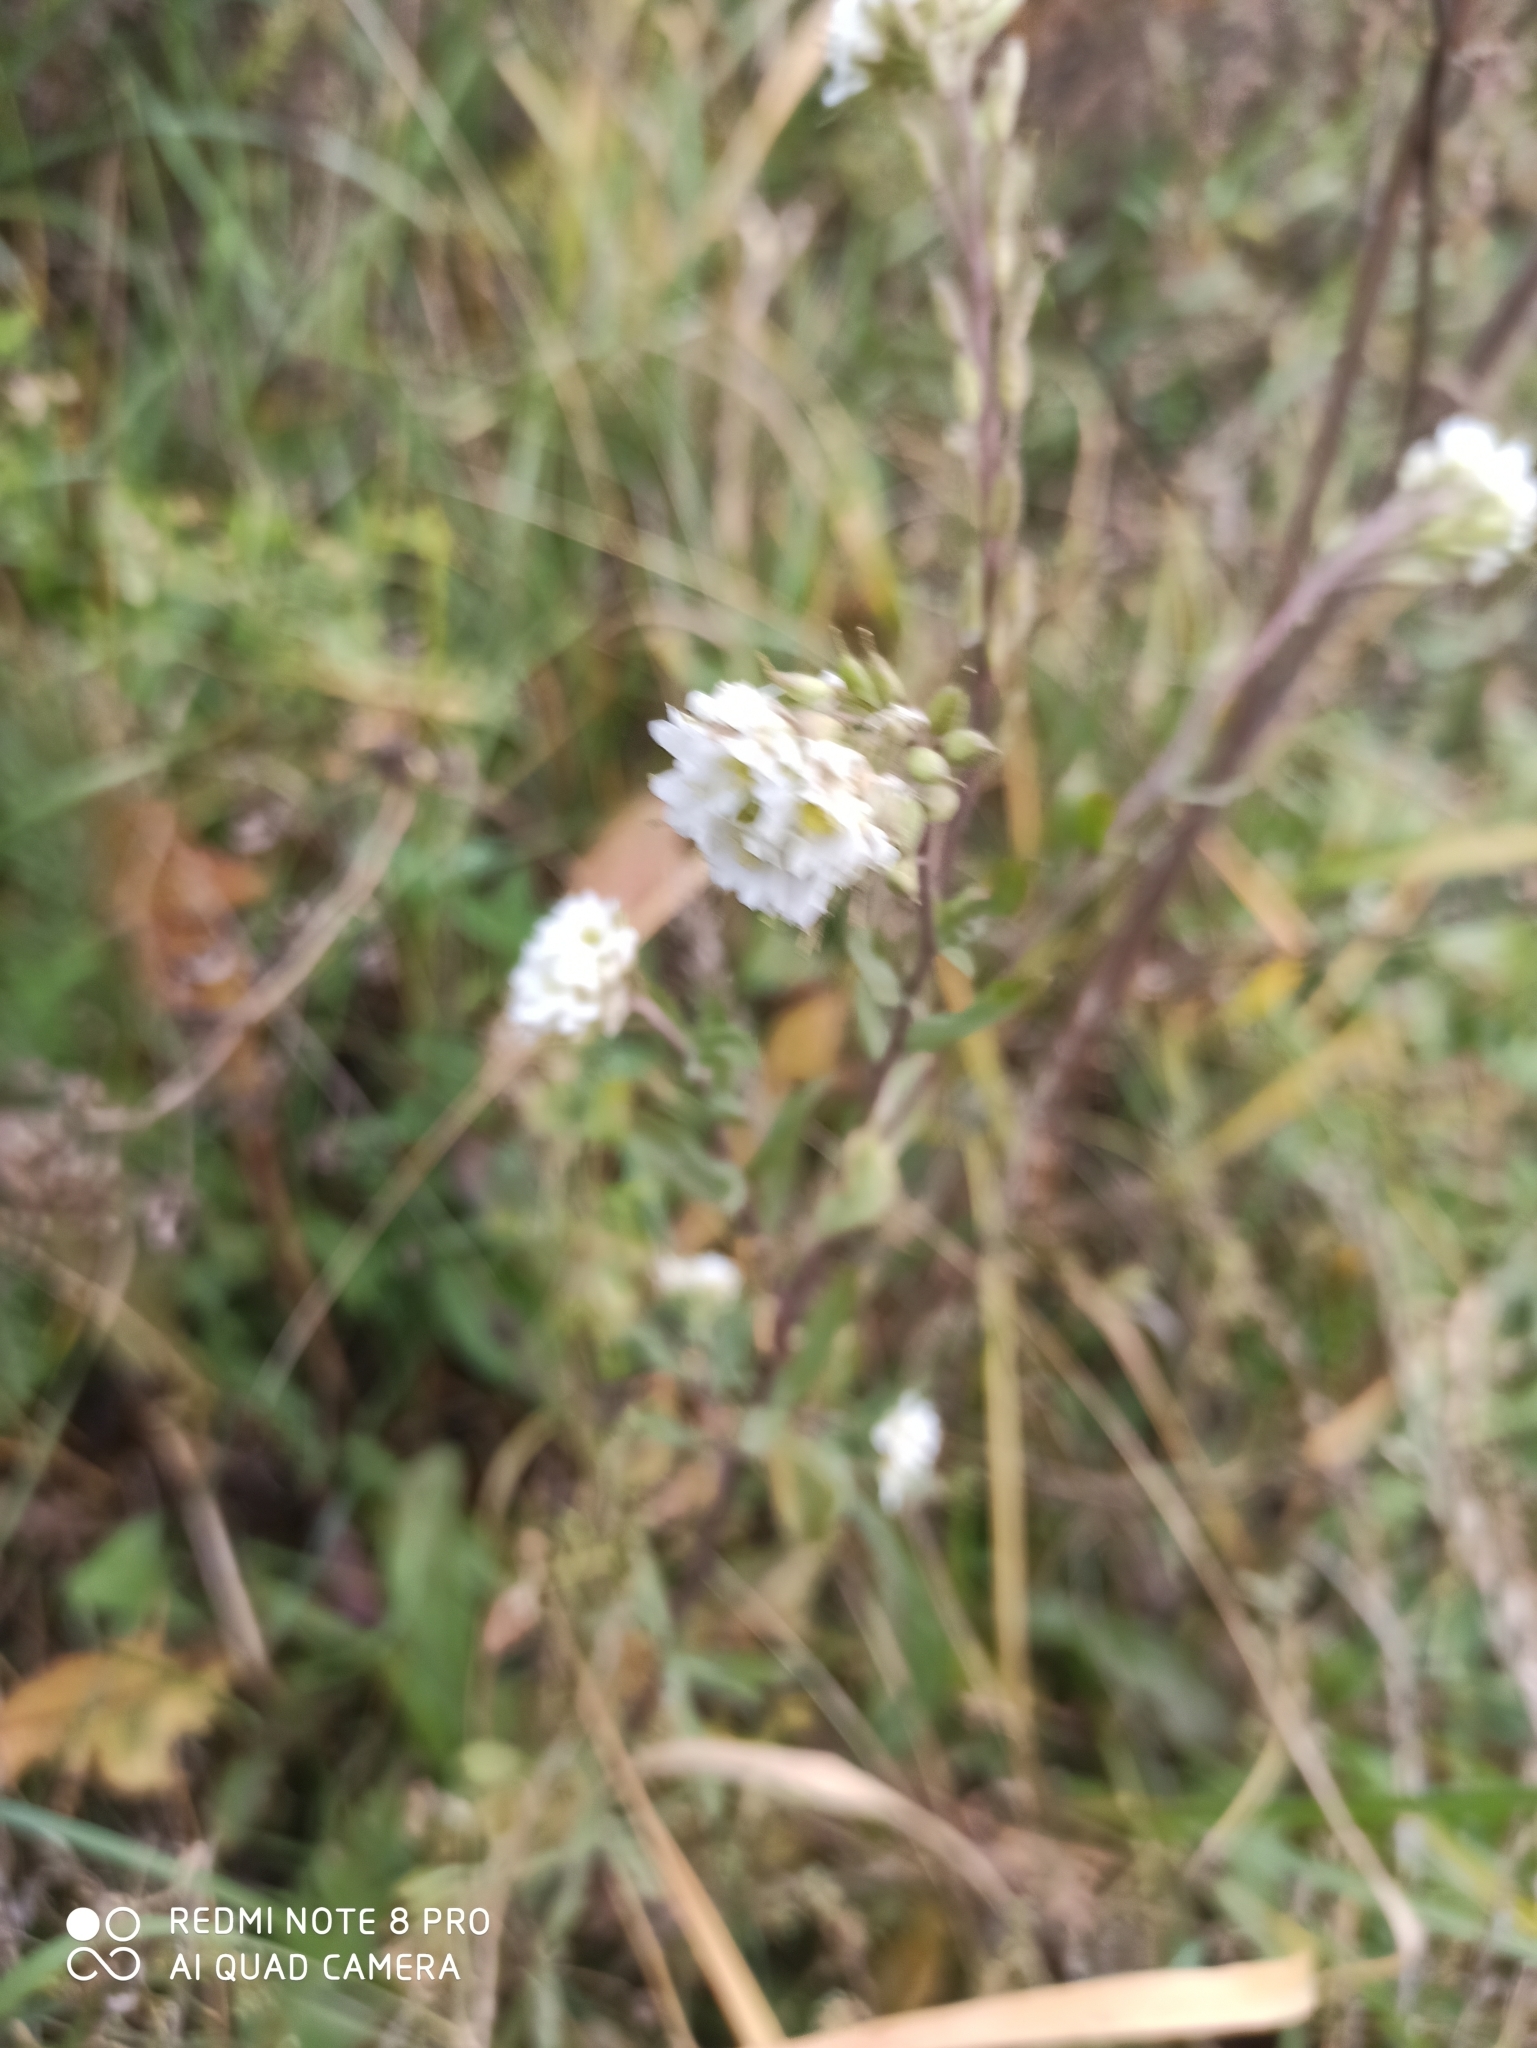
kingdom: Plantae
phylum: Tracheophyta
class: Magnoliopsida
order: Brassicales
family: Brassicaceae
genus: Berteroa
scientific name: Berteroa incana
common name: Hoary alison
